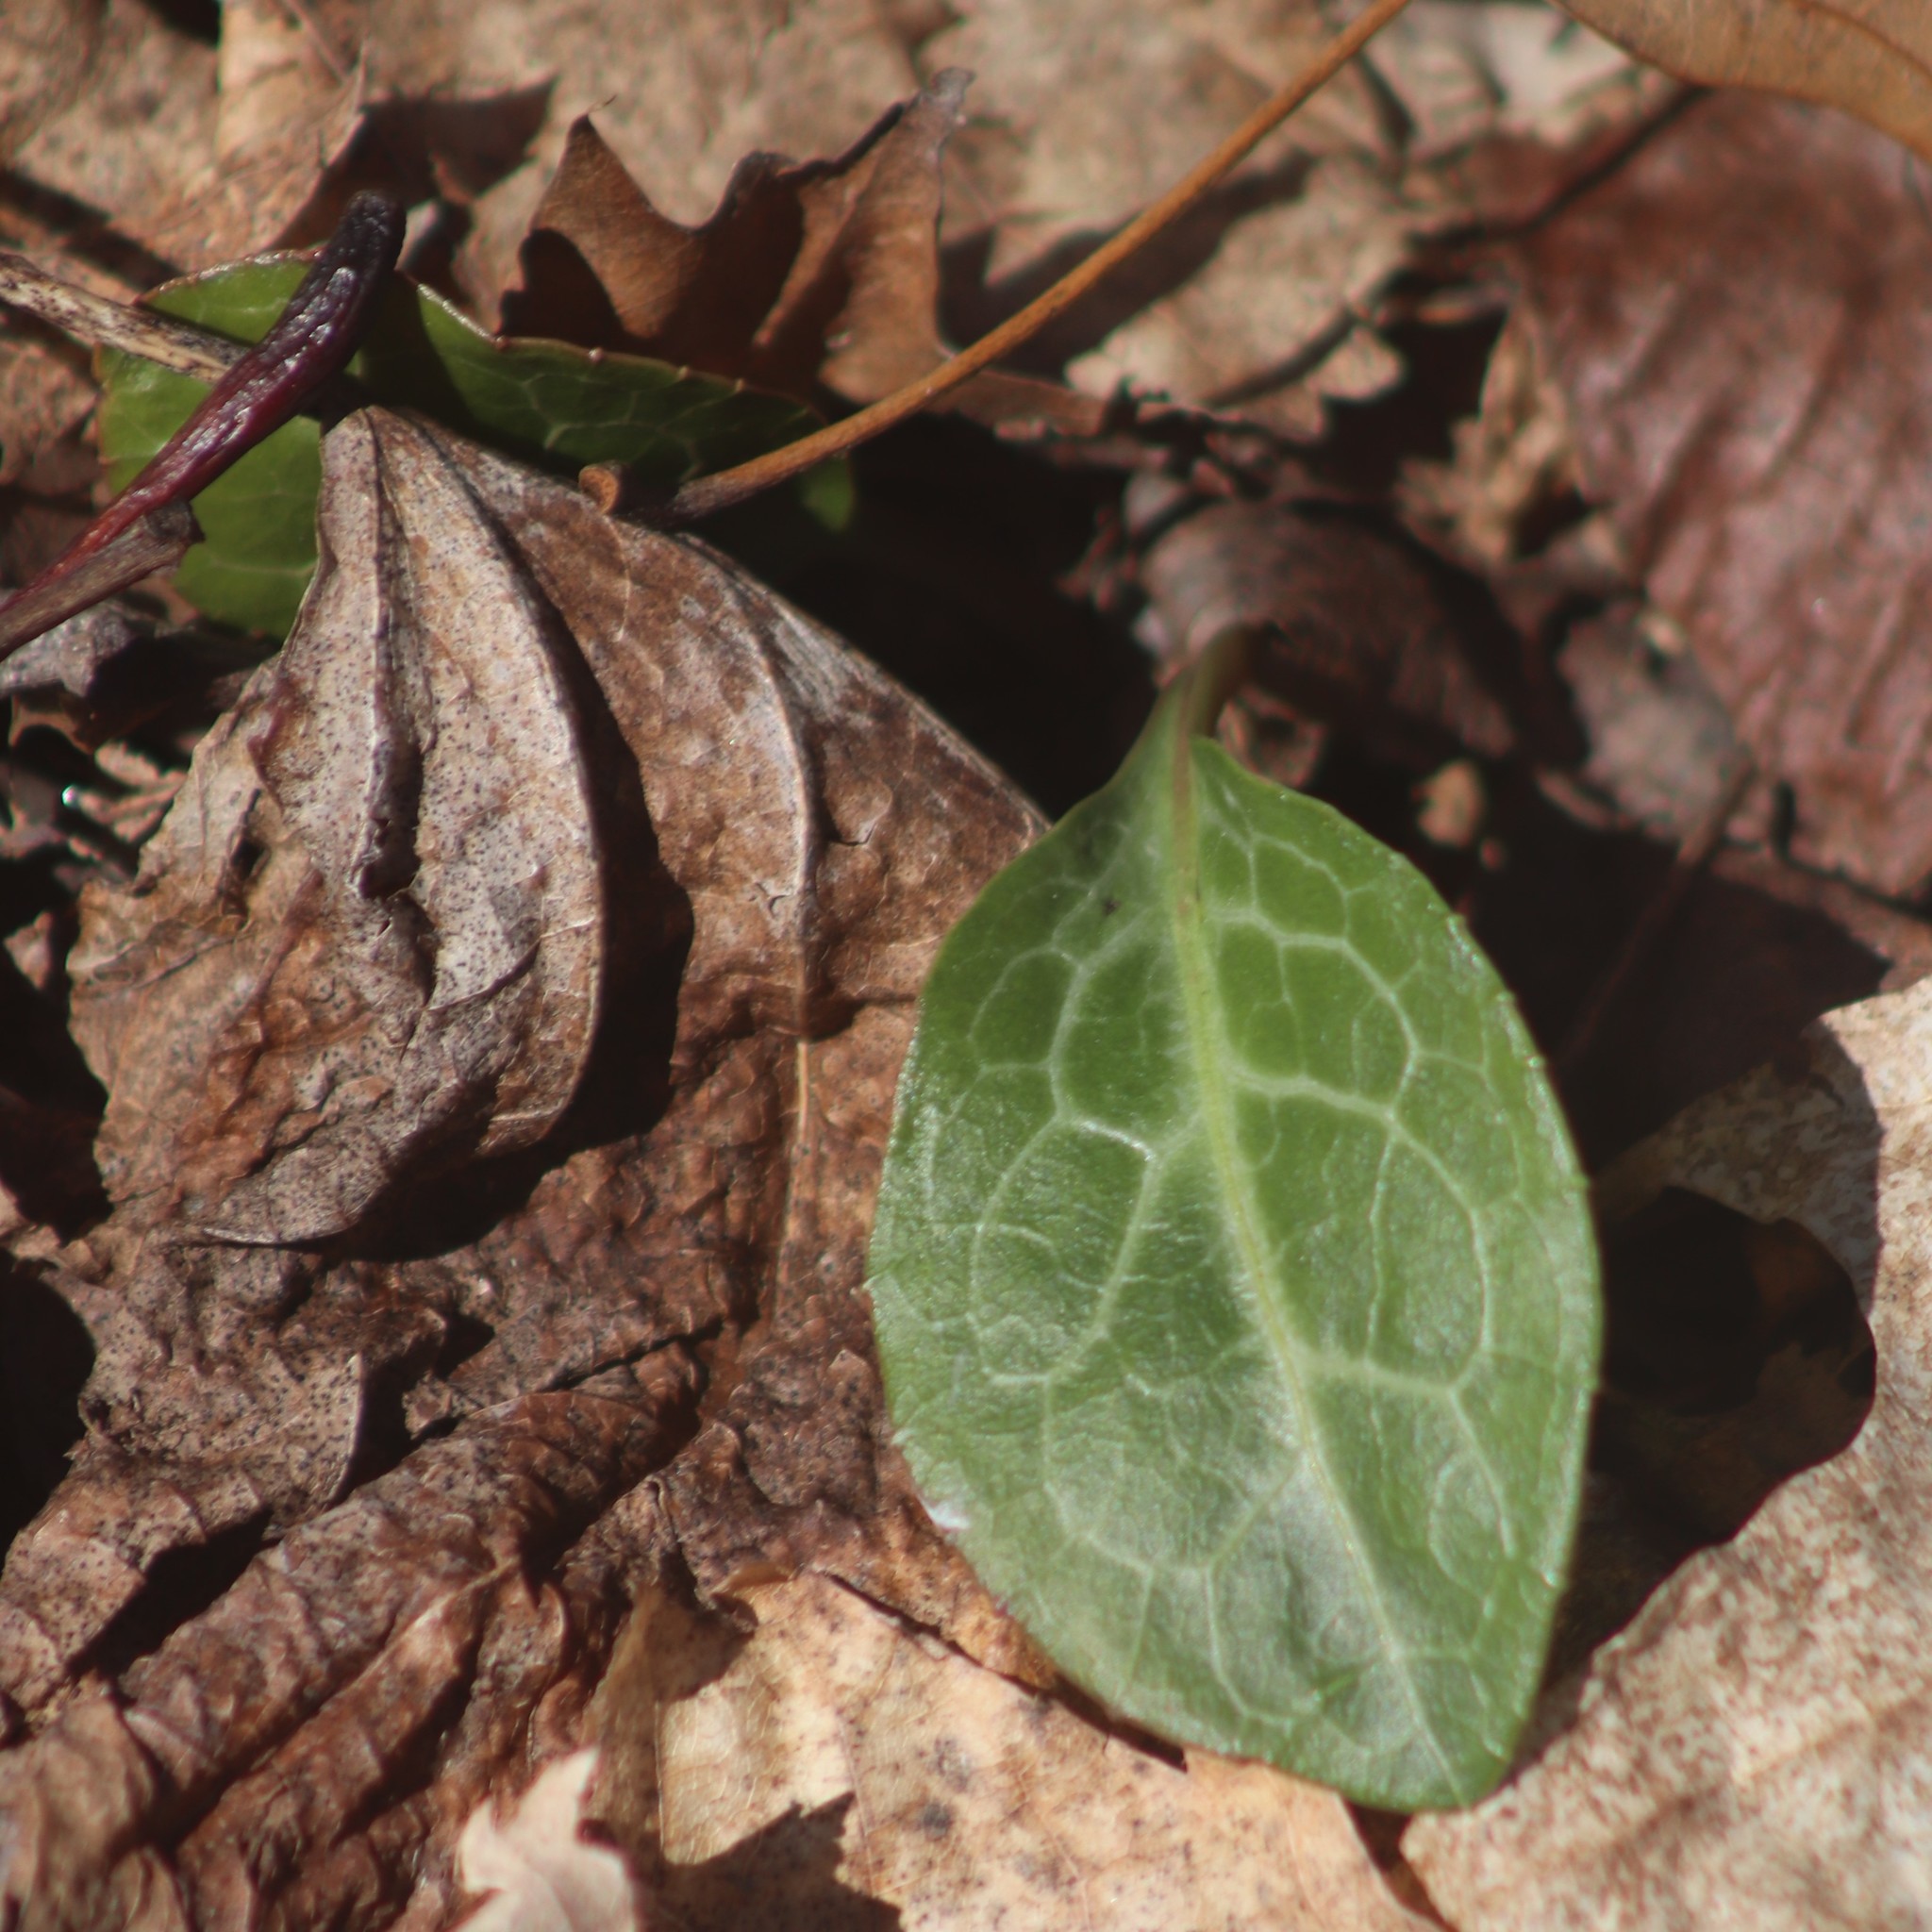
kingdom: Plantae
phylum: Tracheophyta
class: Magnoliopsida
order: Ericales
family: Ericaceae
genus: Pyrola
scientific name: Pyrola americana
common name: American wintergreen
